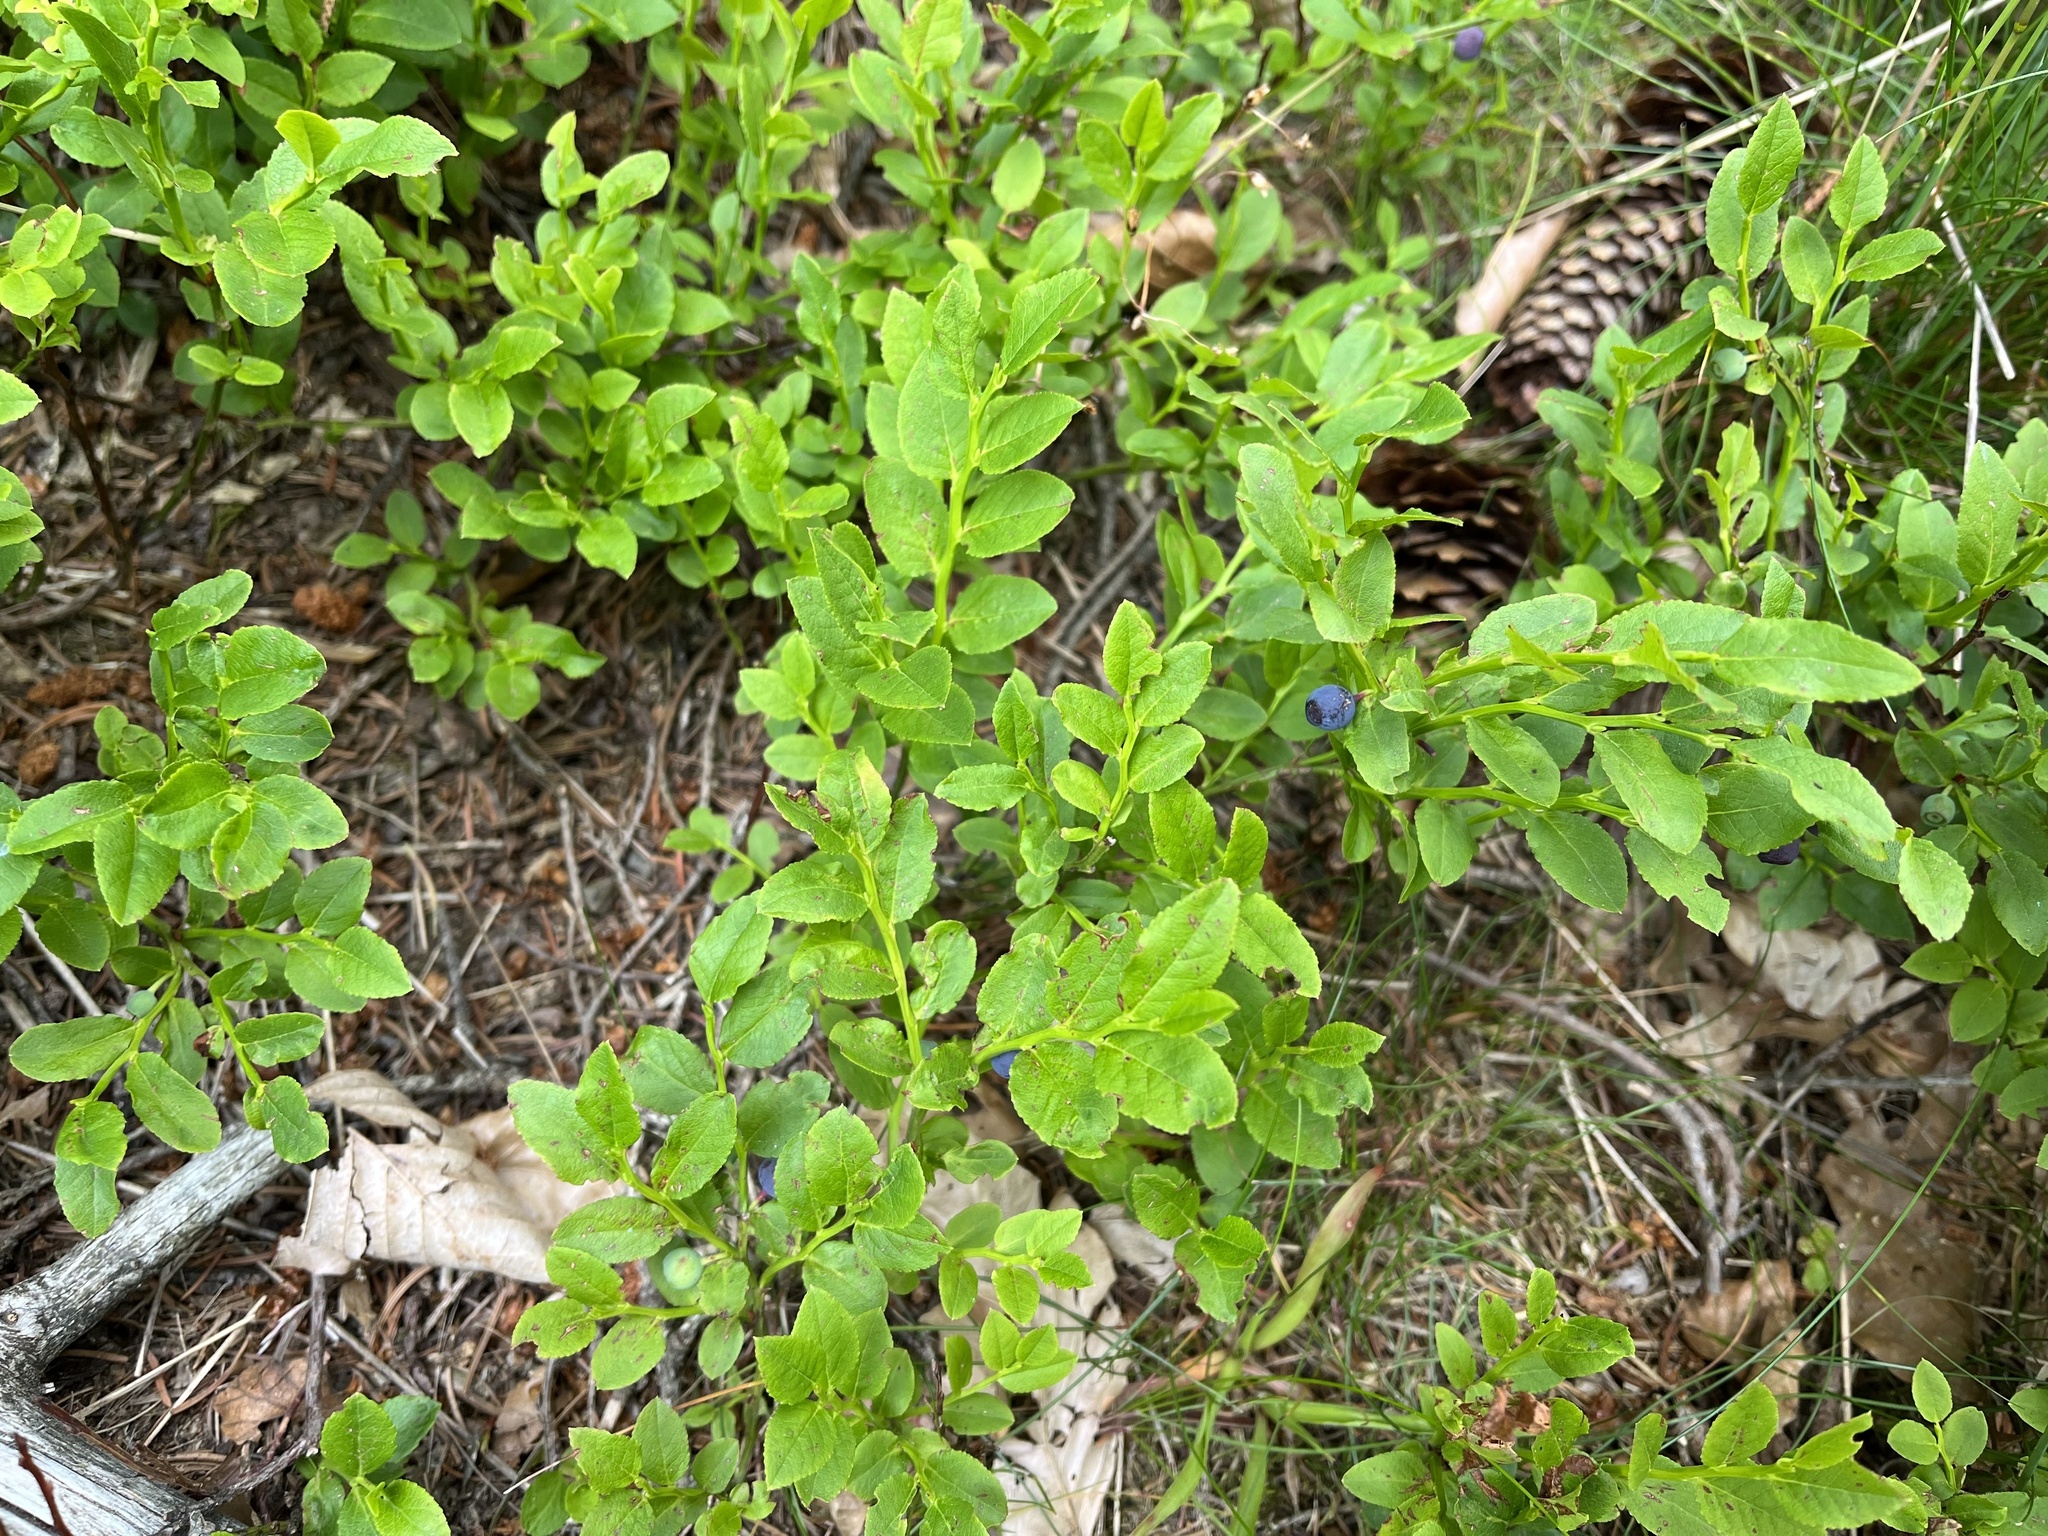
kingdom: Plantae
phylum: Tracheophyta
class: Magnoliopsida
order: Ericales
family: Ericaceae
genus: Vaccinium
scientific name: Vaccinium myrtillus
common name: Bilberry
